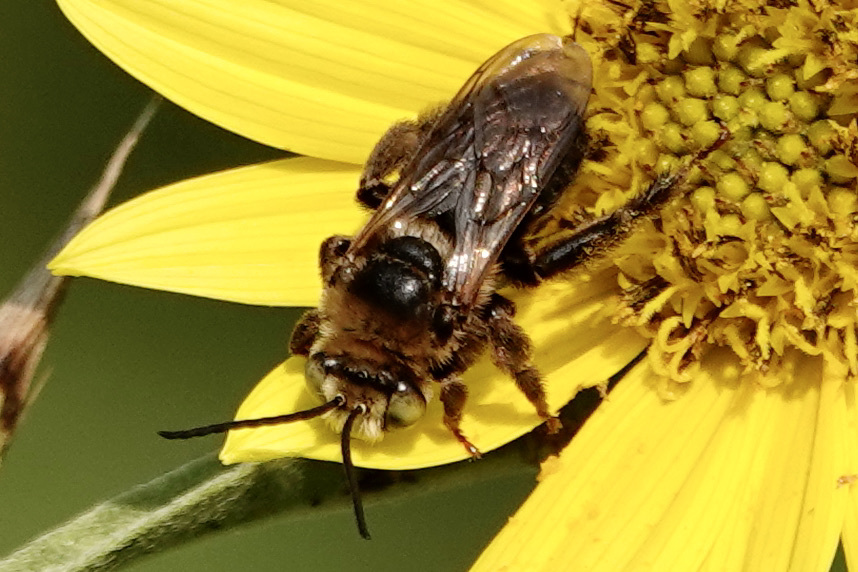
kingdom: Animalia
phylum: Arthropoda
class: Insecta
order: Hymenoptera
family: Apidae
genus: Svastra
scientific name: Svastra obliqua
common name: Oblique longhorn
